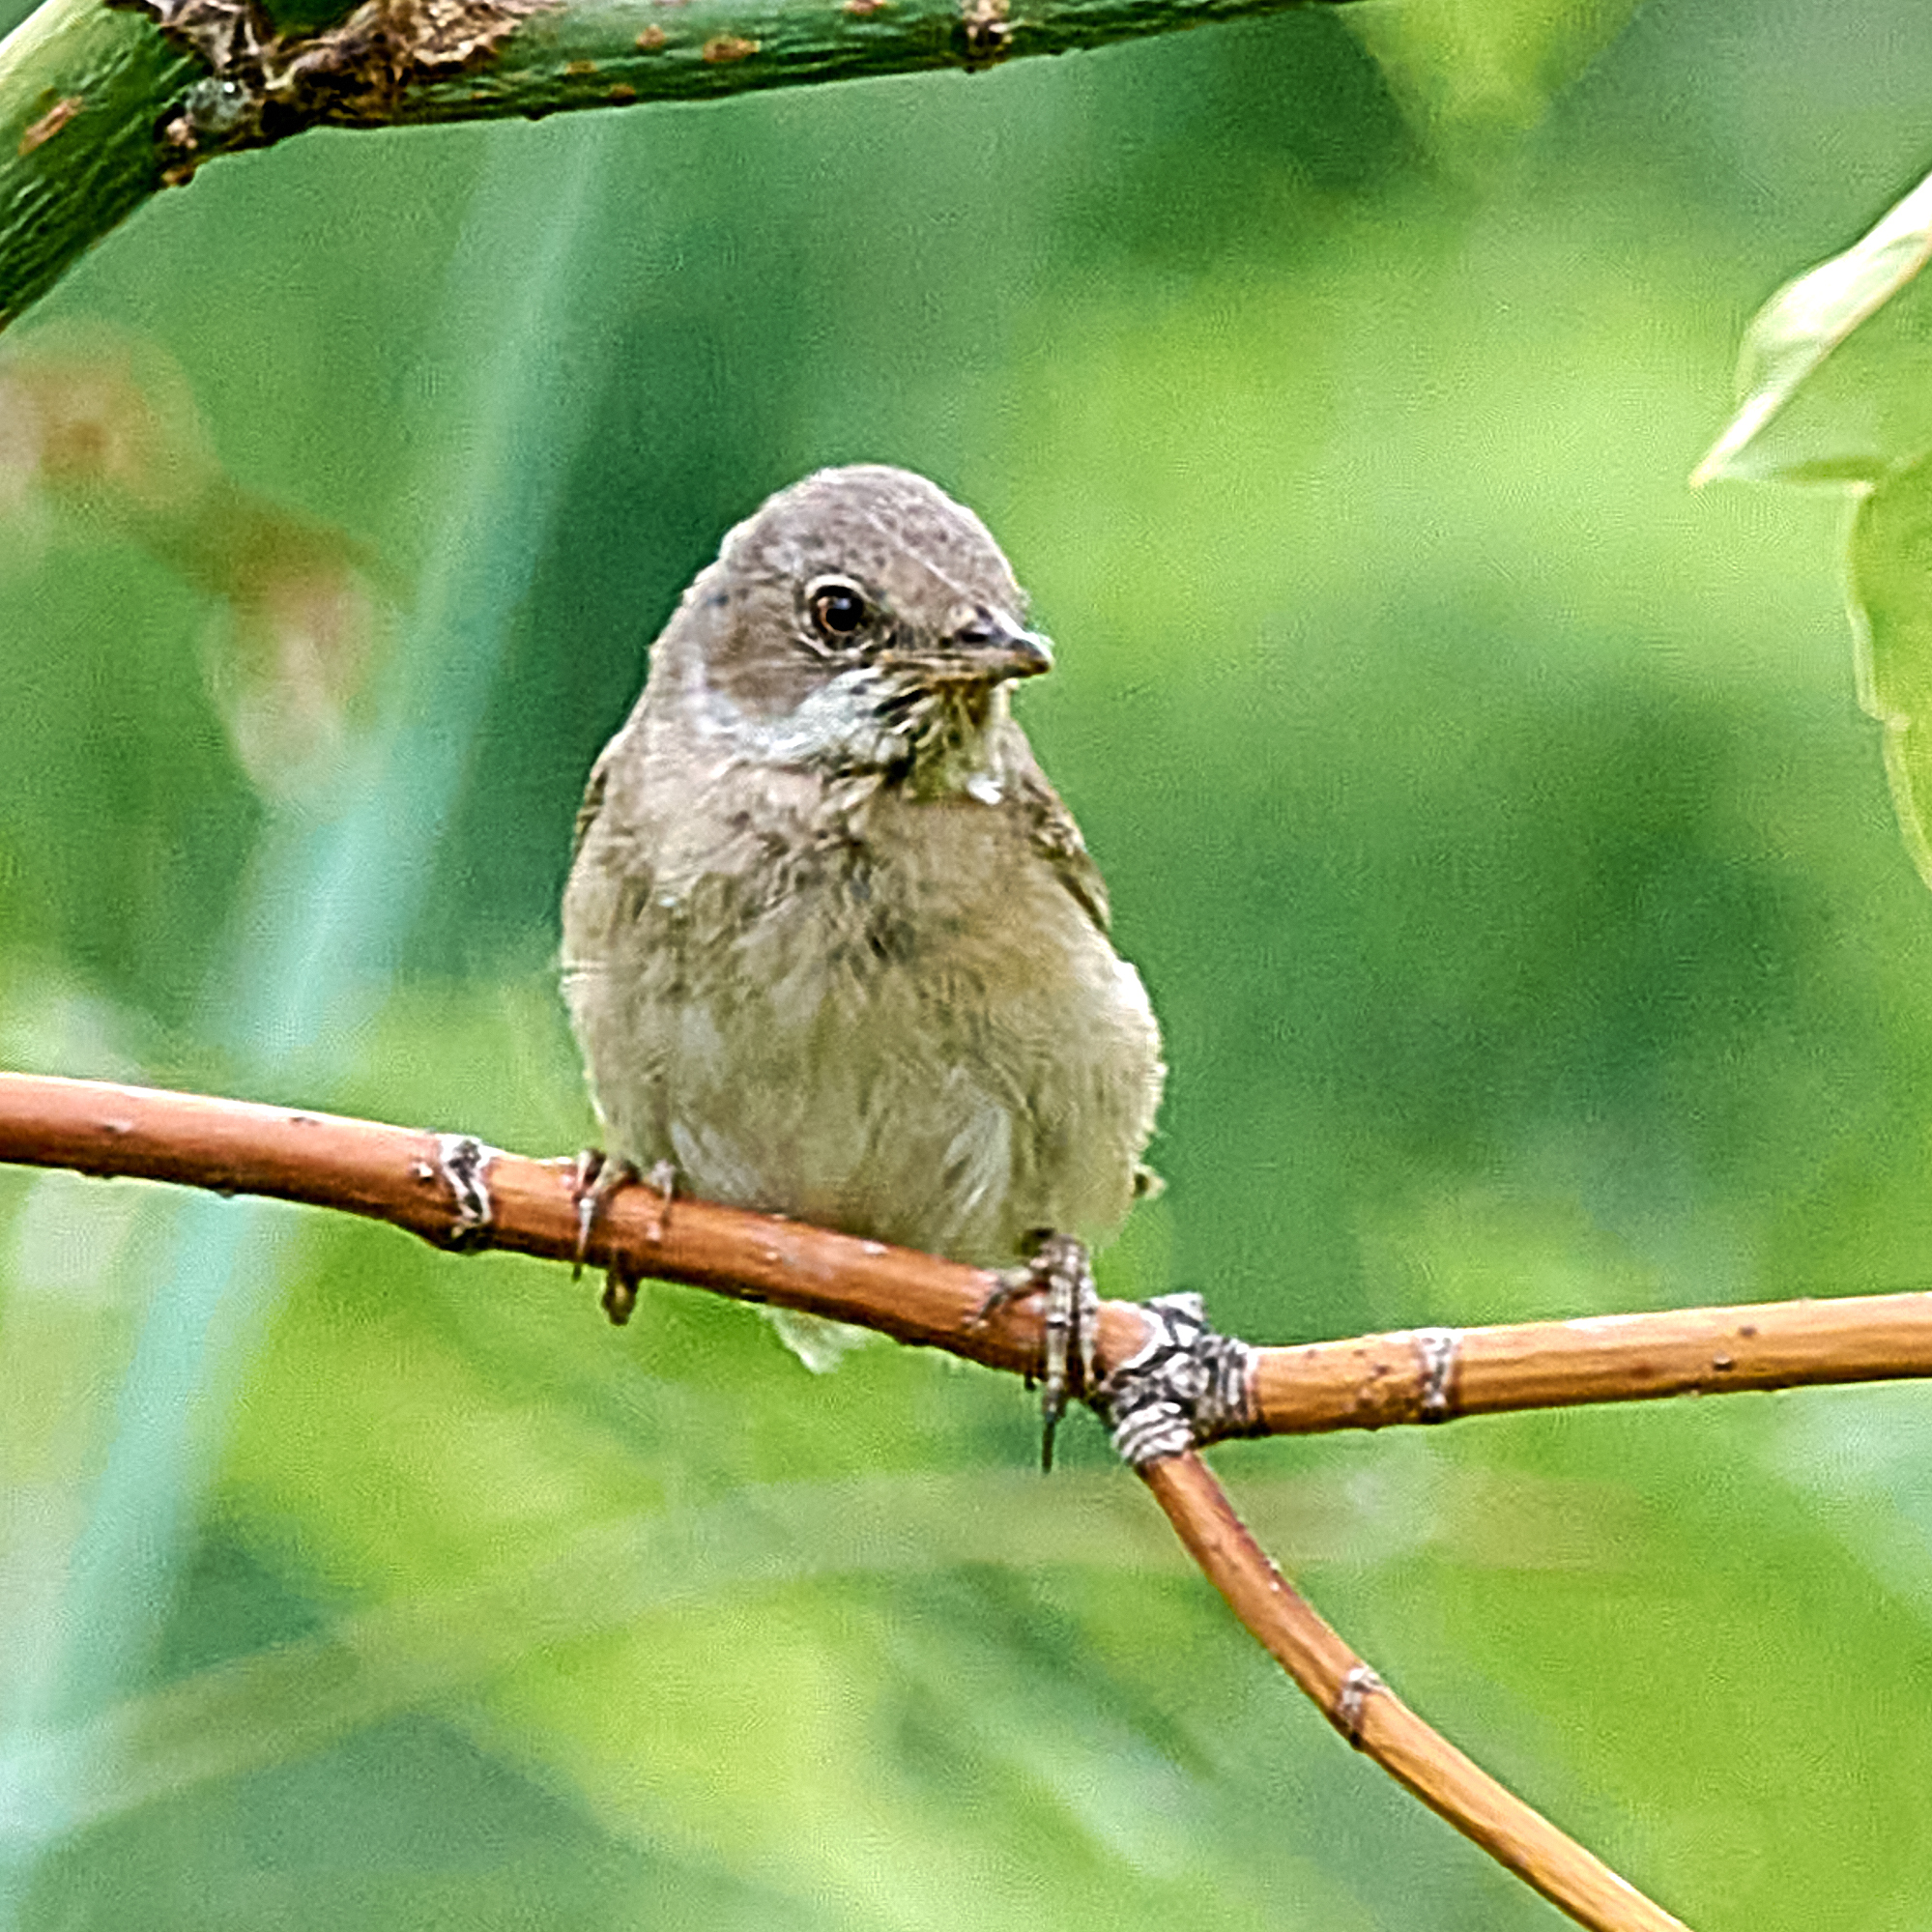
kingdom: Animalia
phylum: Chordata
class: Aves
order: Passeriformes
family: Sylviidae
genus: Sylvia
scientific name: Sylvia communis
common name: Common whitethroat
